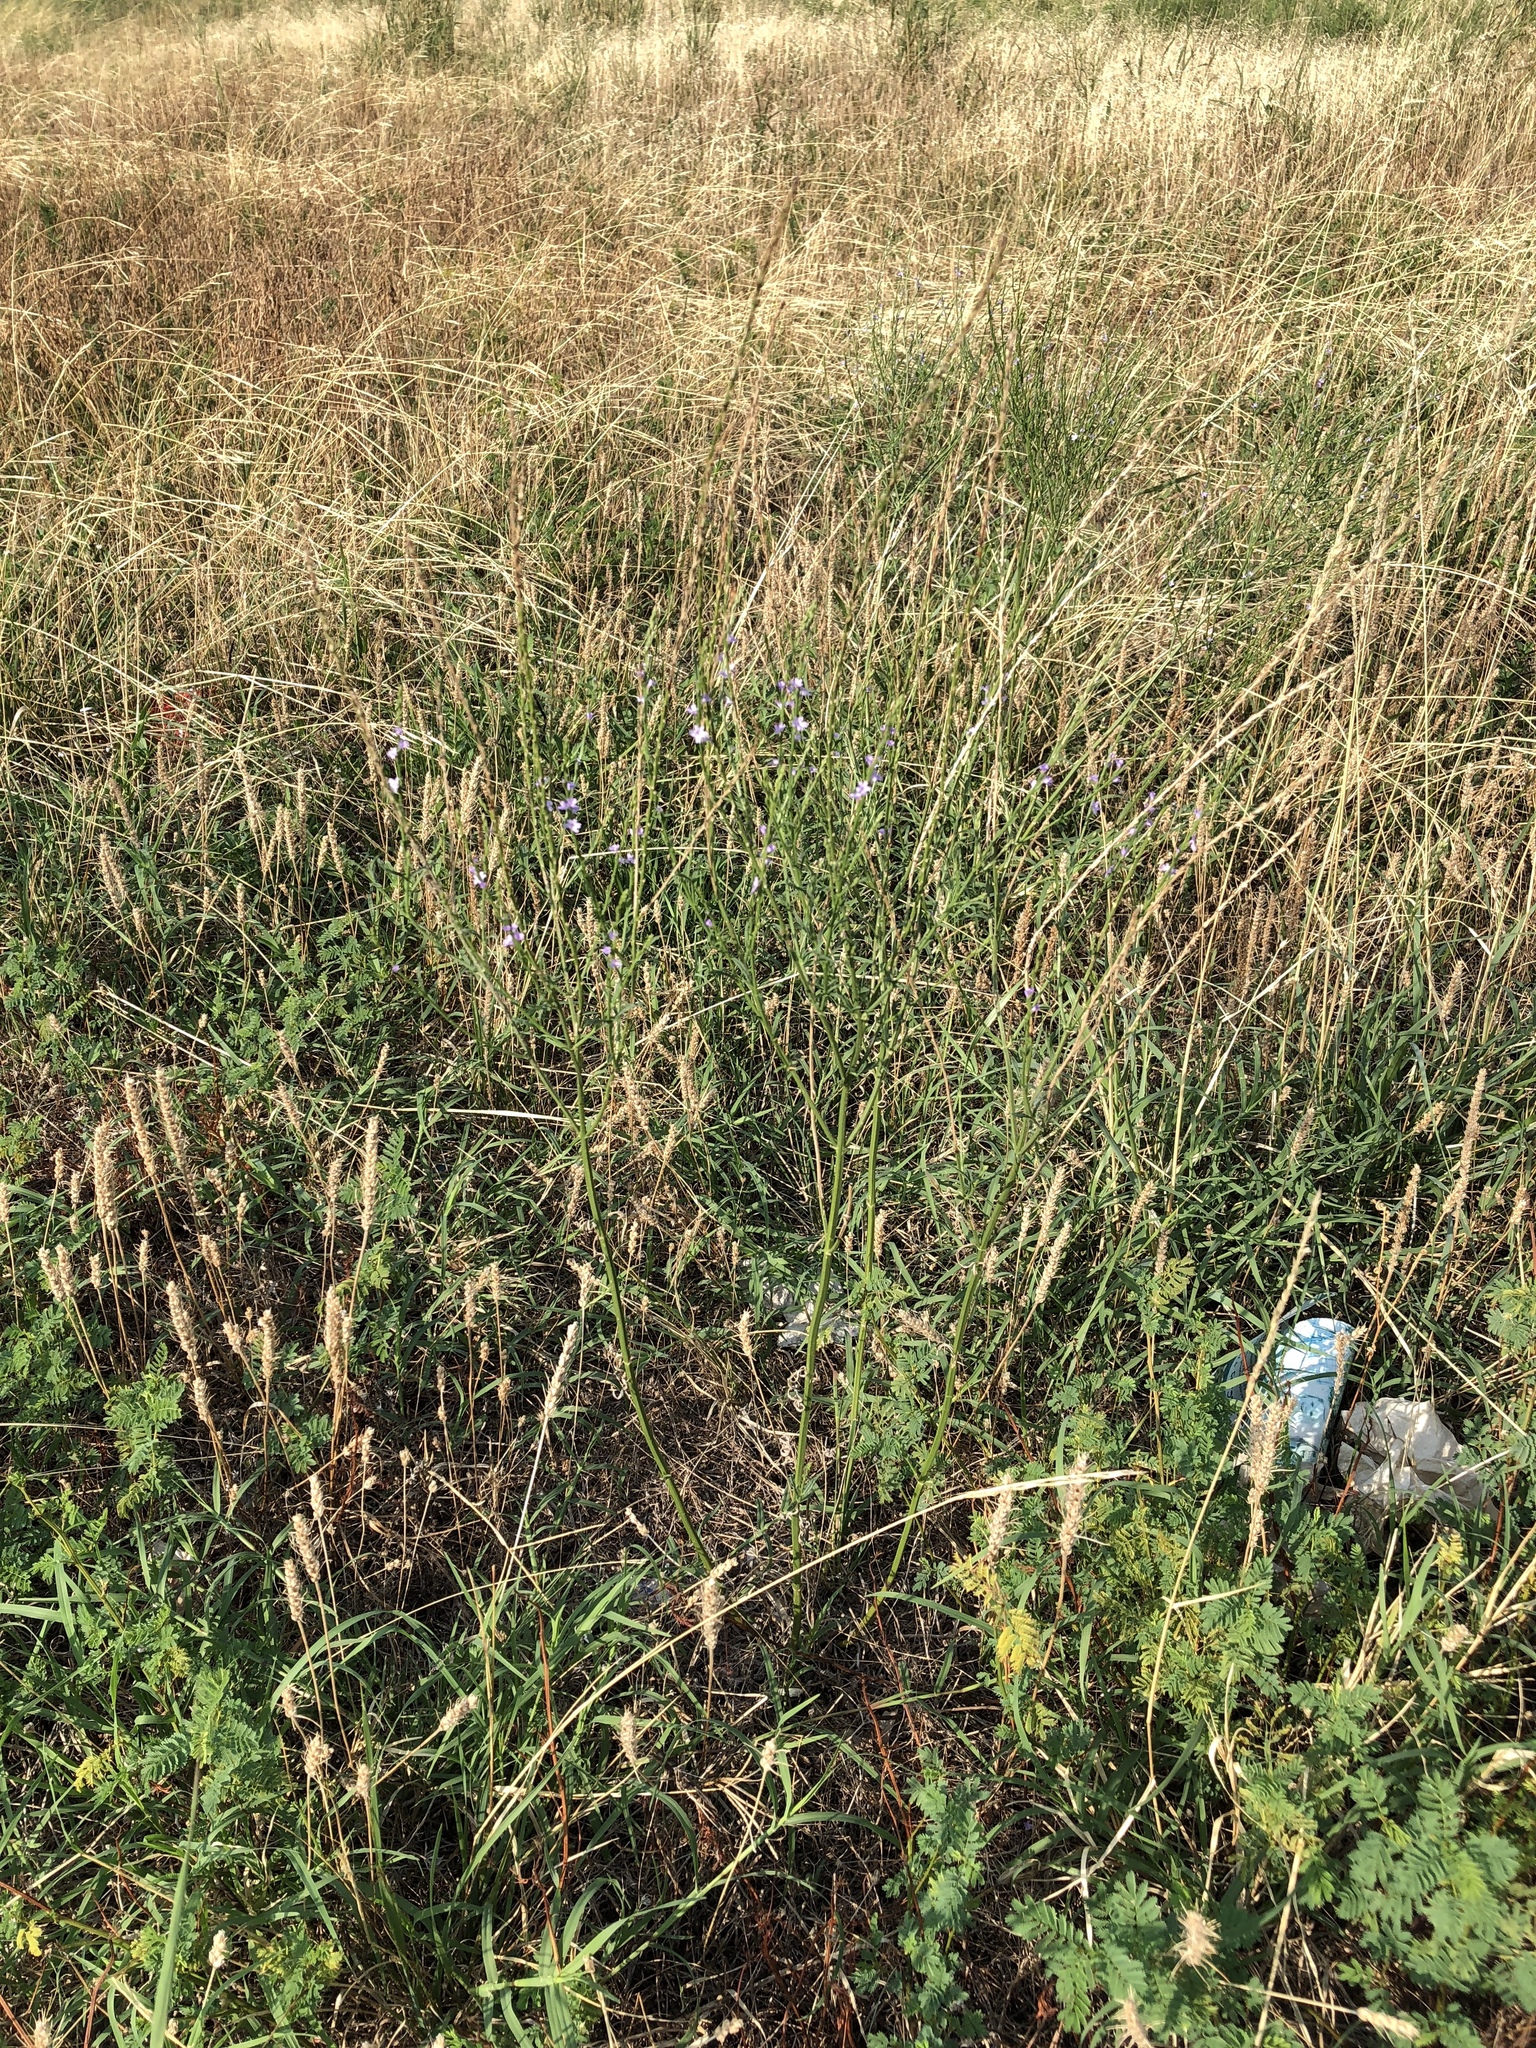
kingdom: Plantae
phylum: Tracheophyta
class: Magnoliopsida
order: Lamiales
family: Verbenaceae
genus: Verbena
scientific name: Verbena halei
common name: Texas vervain
